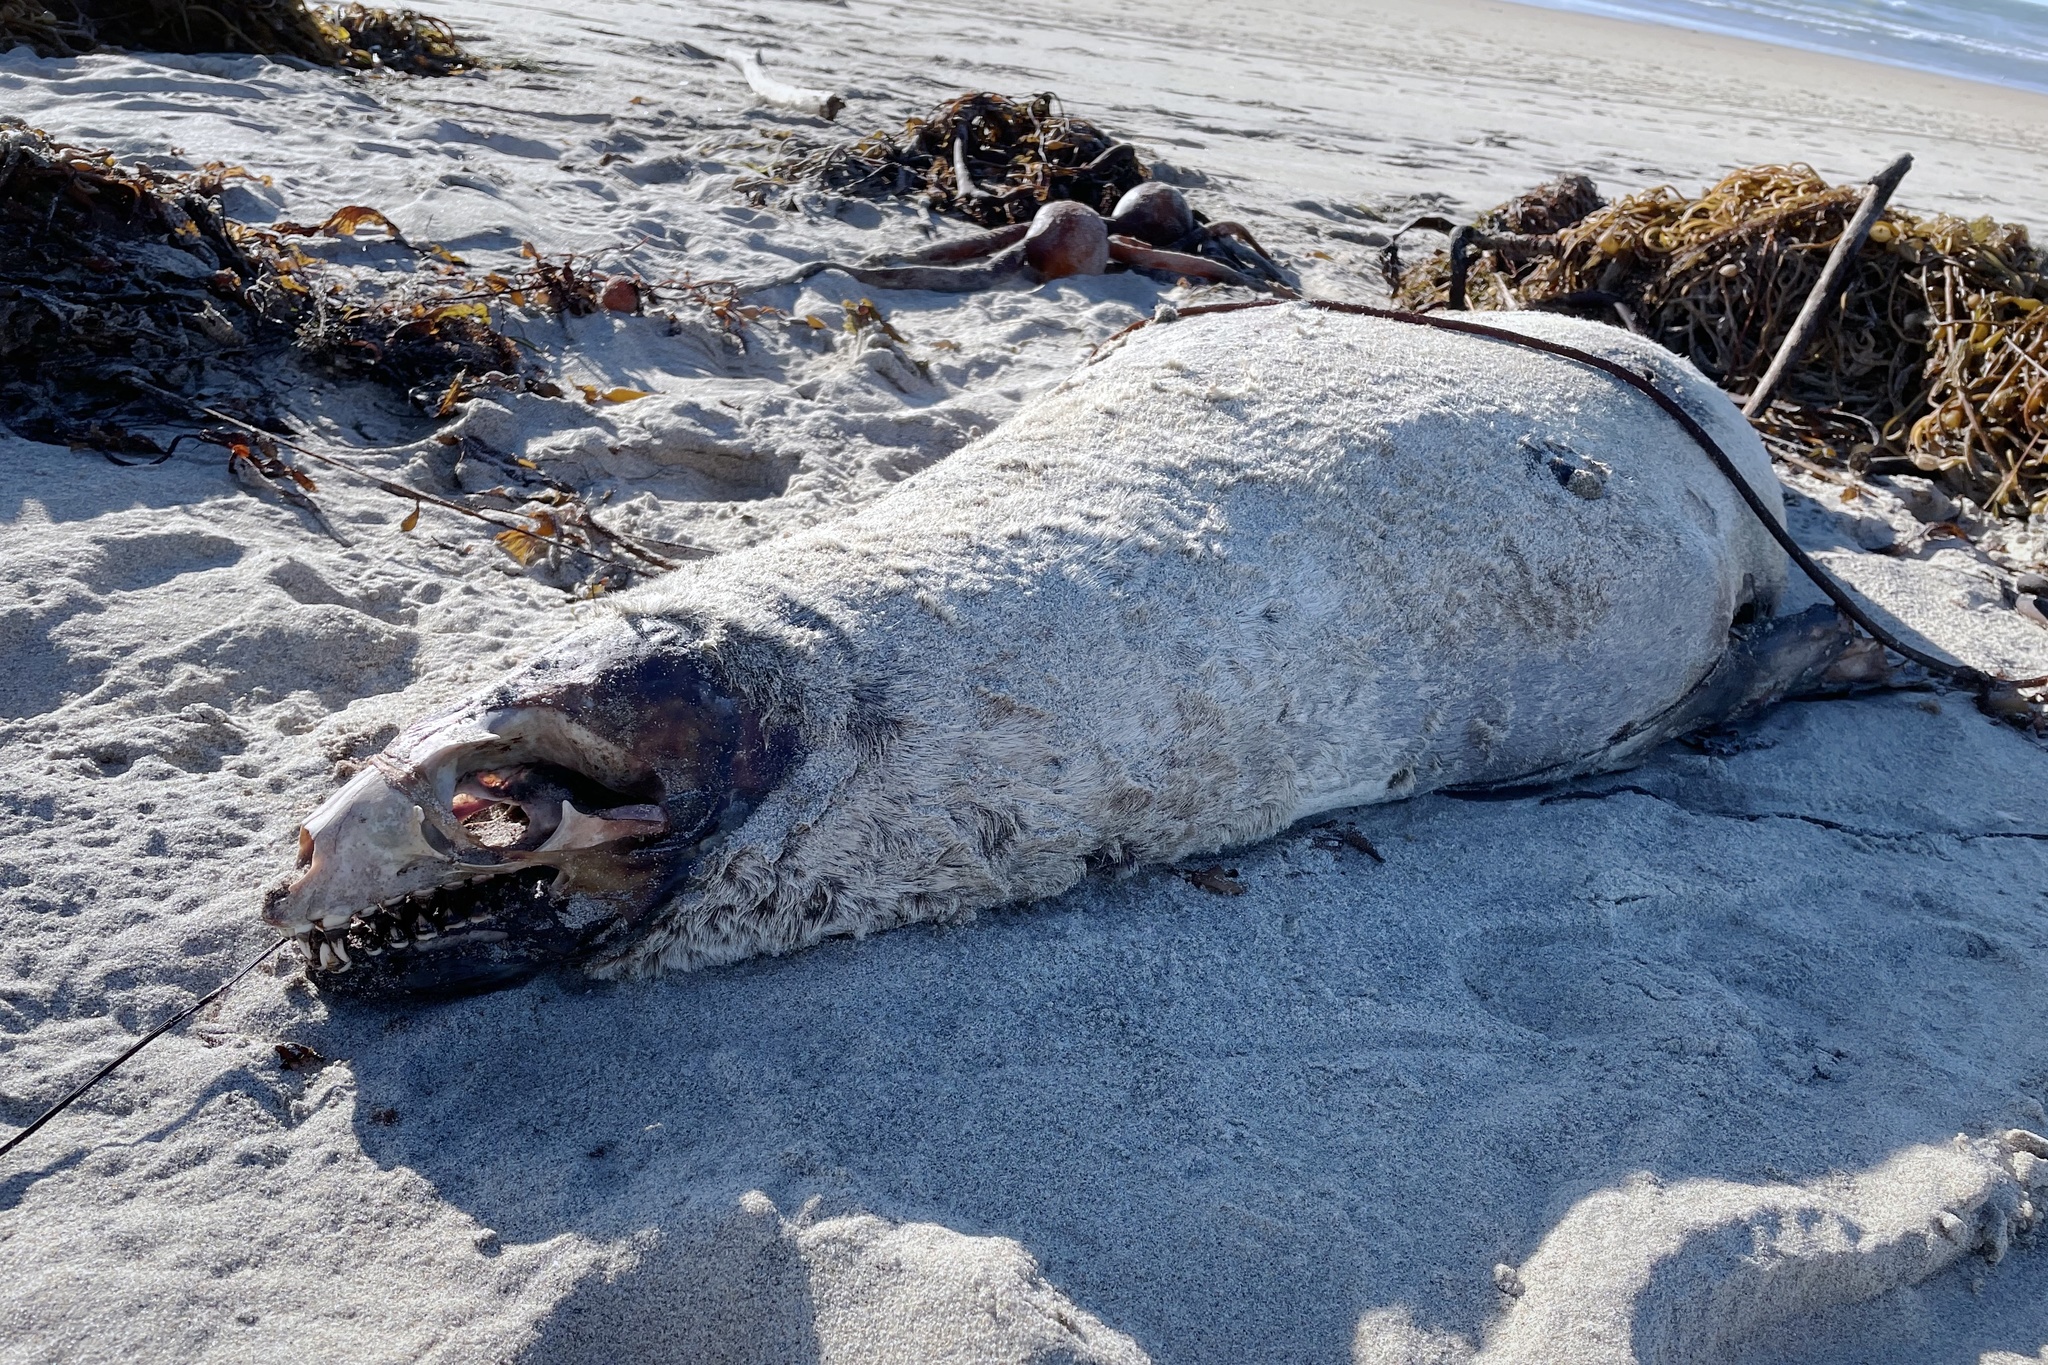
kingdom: Animalia
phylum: Chordata
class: Mammalia
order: Carnivora
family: Otariidae
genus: Zalophus
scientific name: Zalophus californianus
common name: California sea lion
